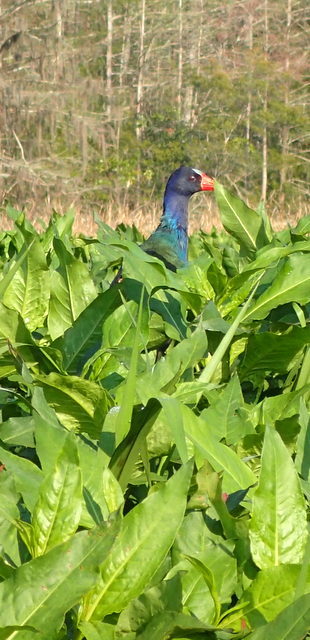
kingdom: Animalia
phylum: Chordata
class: Aves
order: Gruiformes
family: Rallidae
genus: Porphyrio
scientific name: Porphyrio martinica
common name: Purple gallinule
